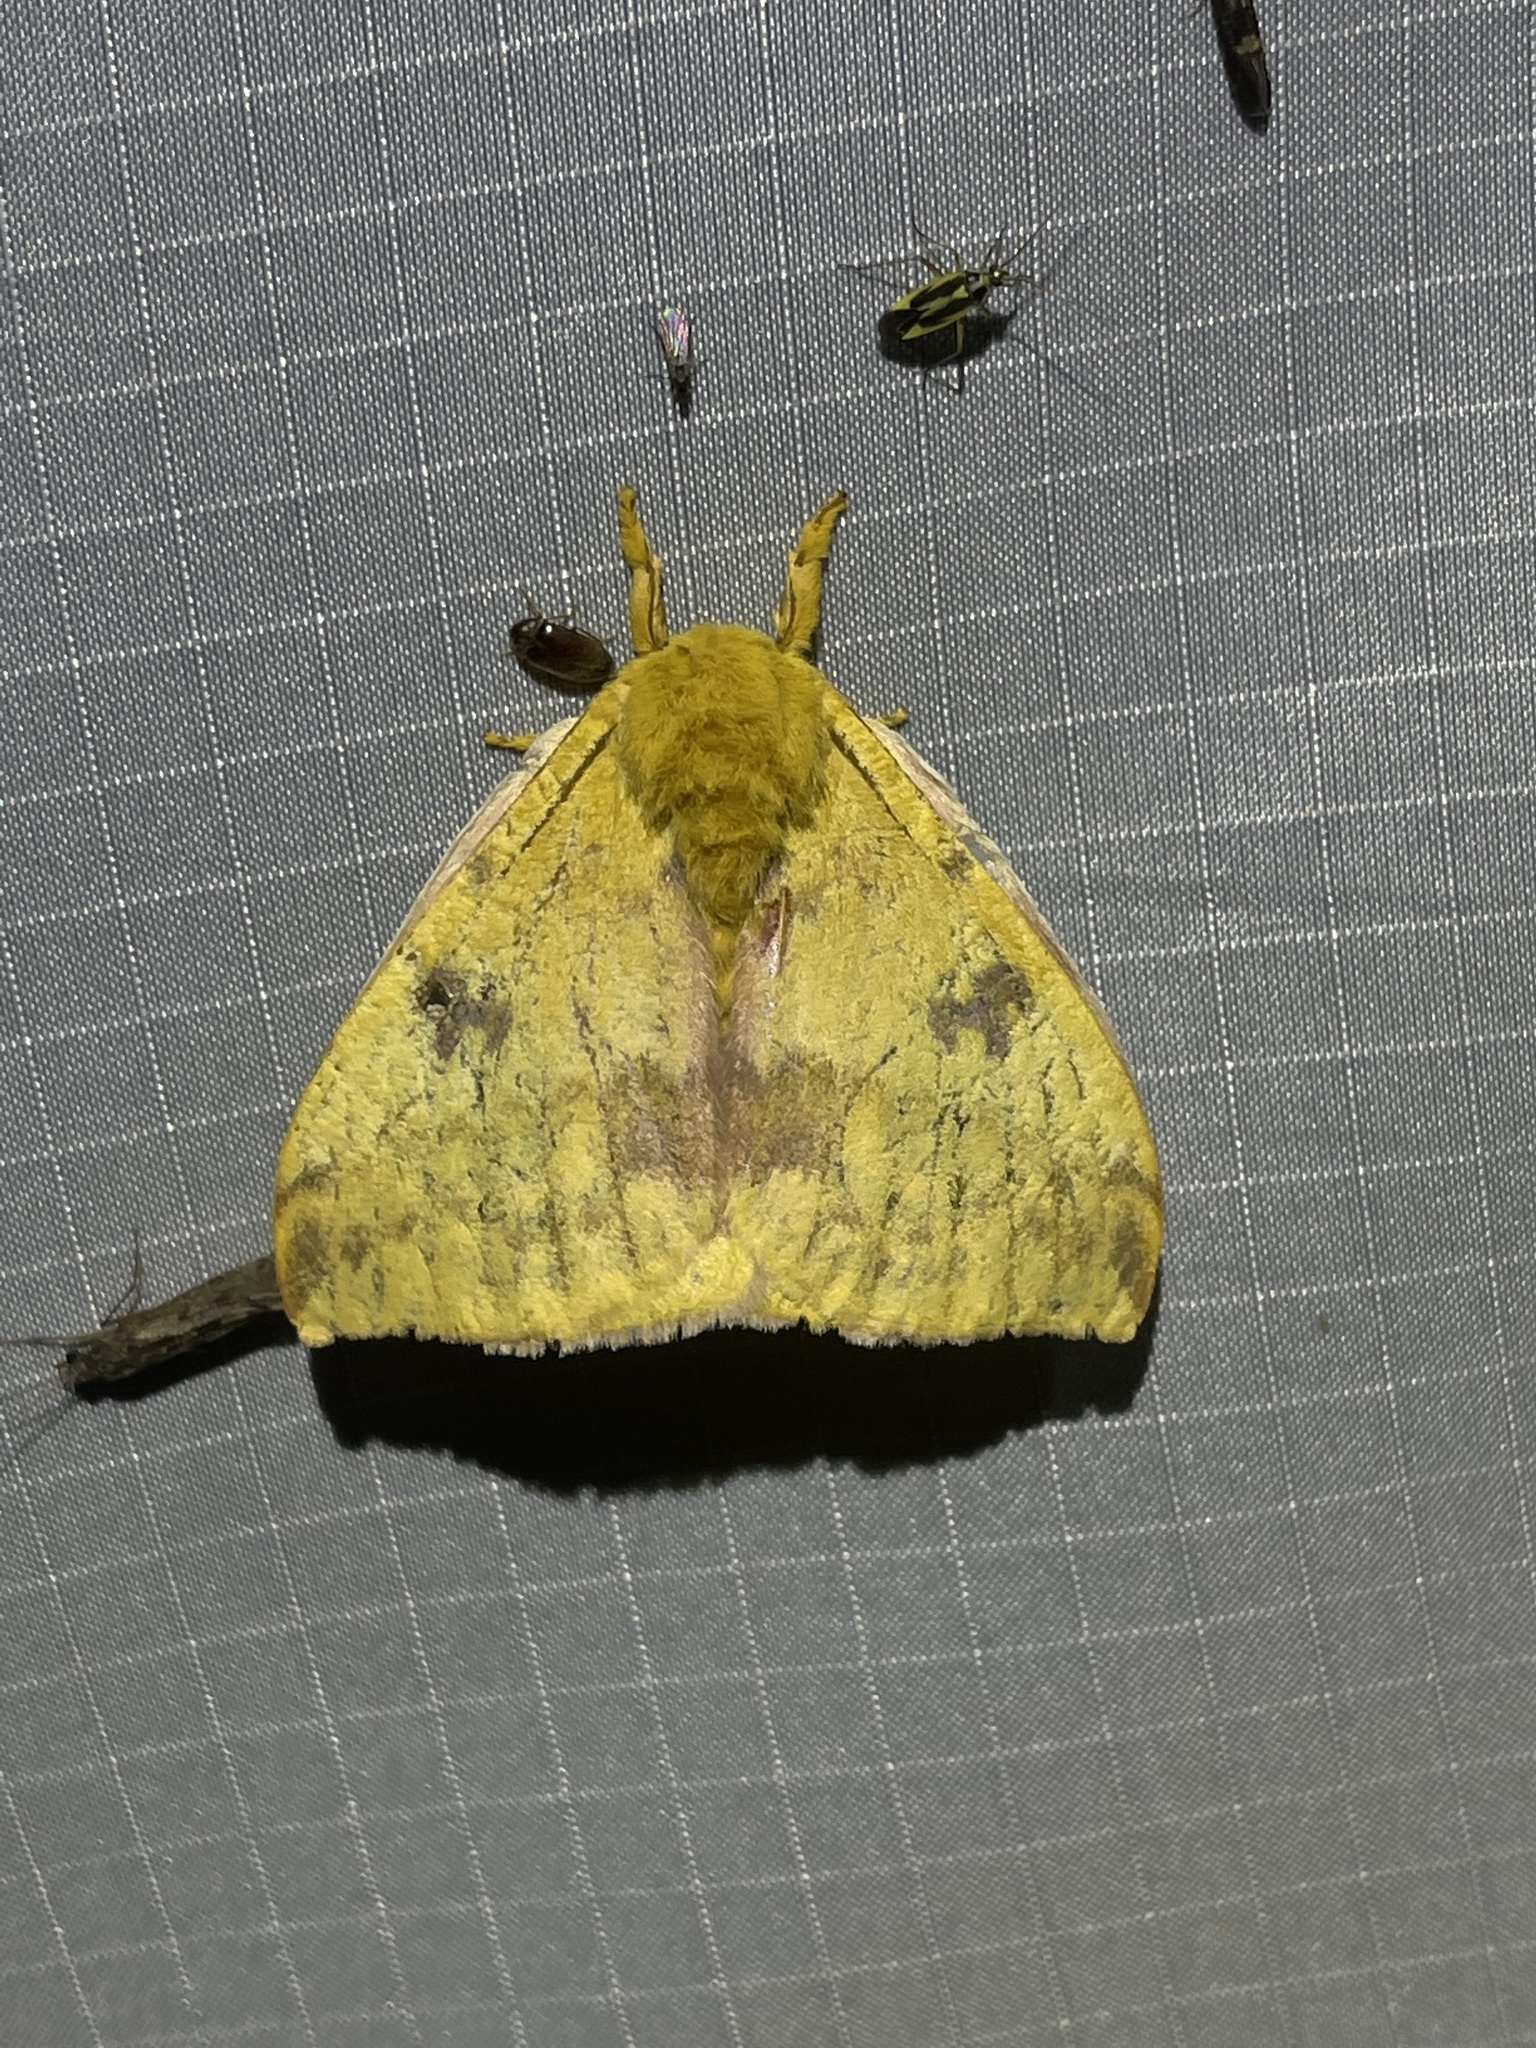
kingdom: Animalia
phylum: Arthropoda
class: Insecta
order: Lepidoptera
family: Saturniidae
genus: Automeris
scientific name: Automeris io
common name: Io moth
